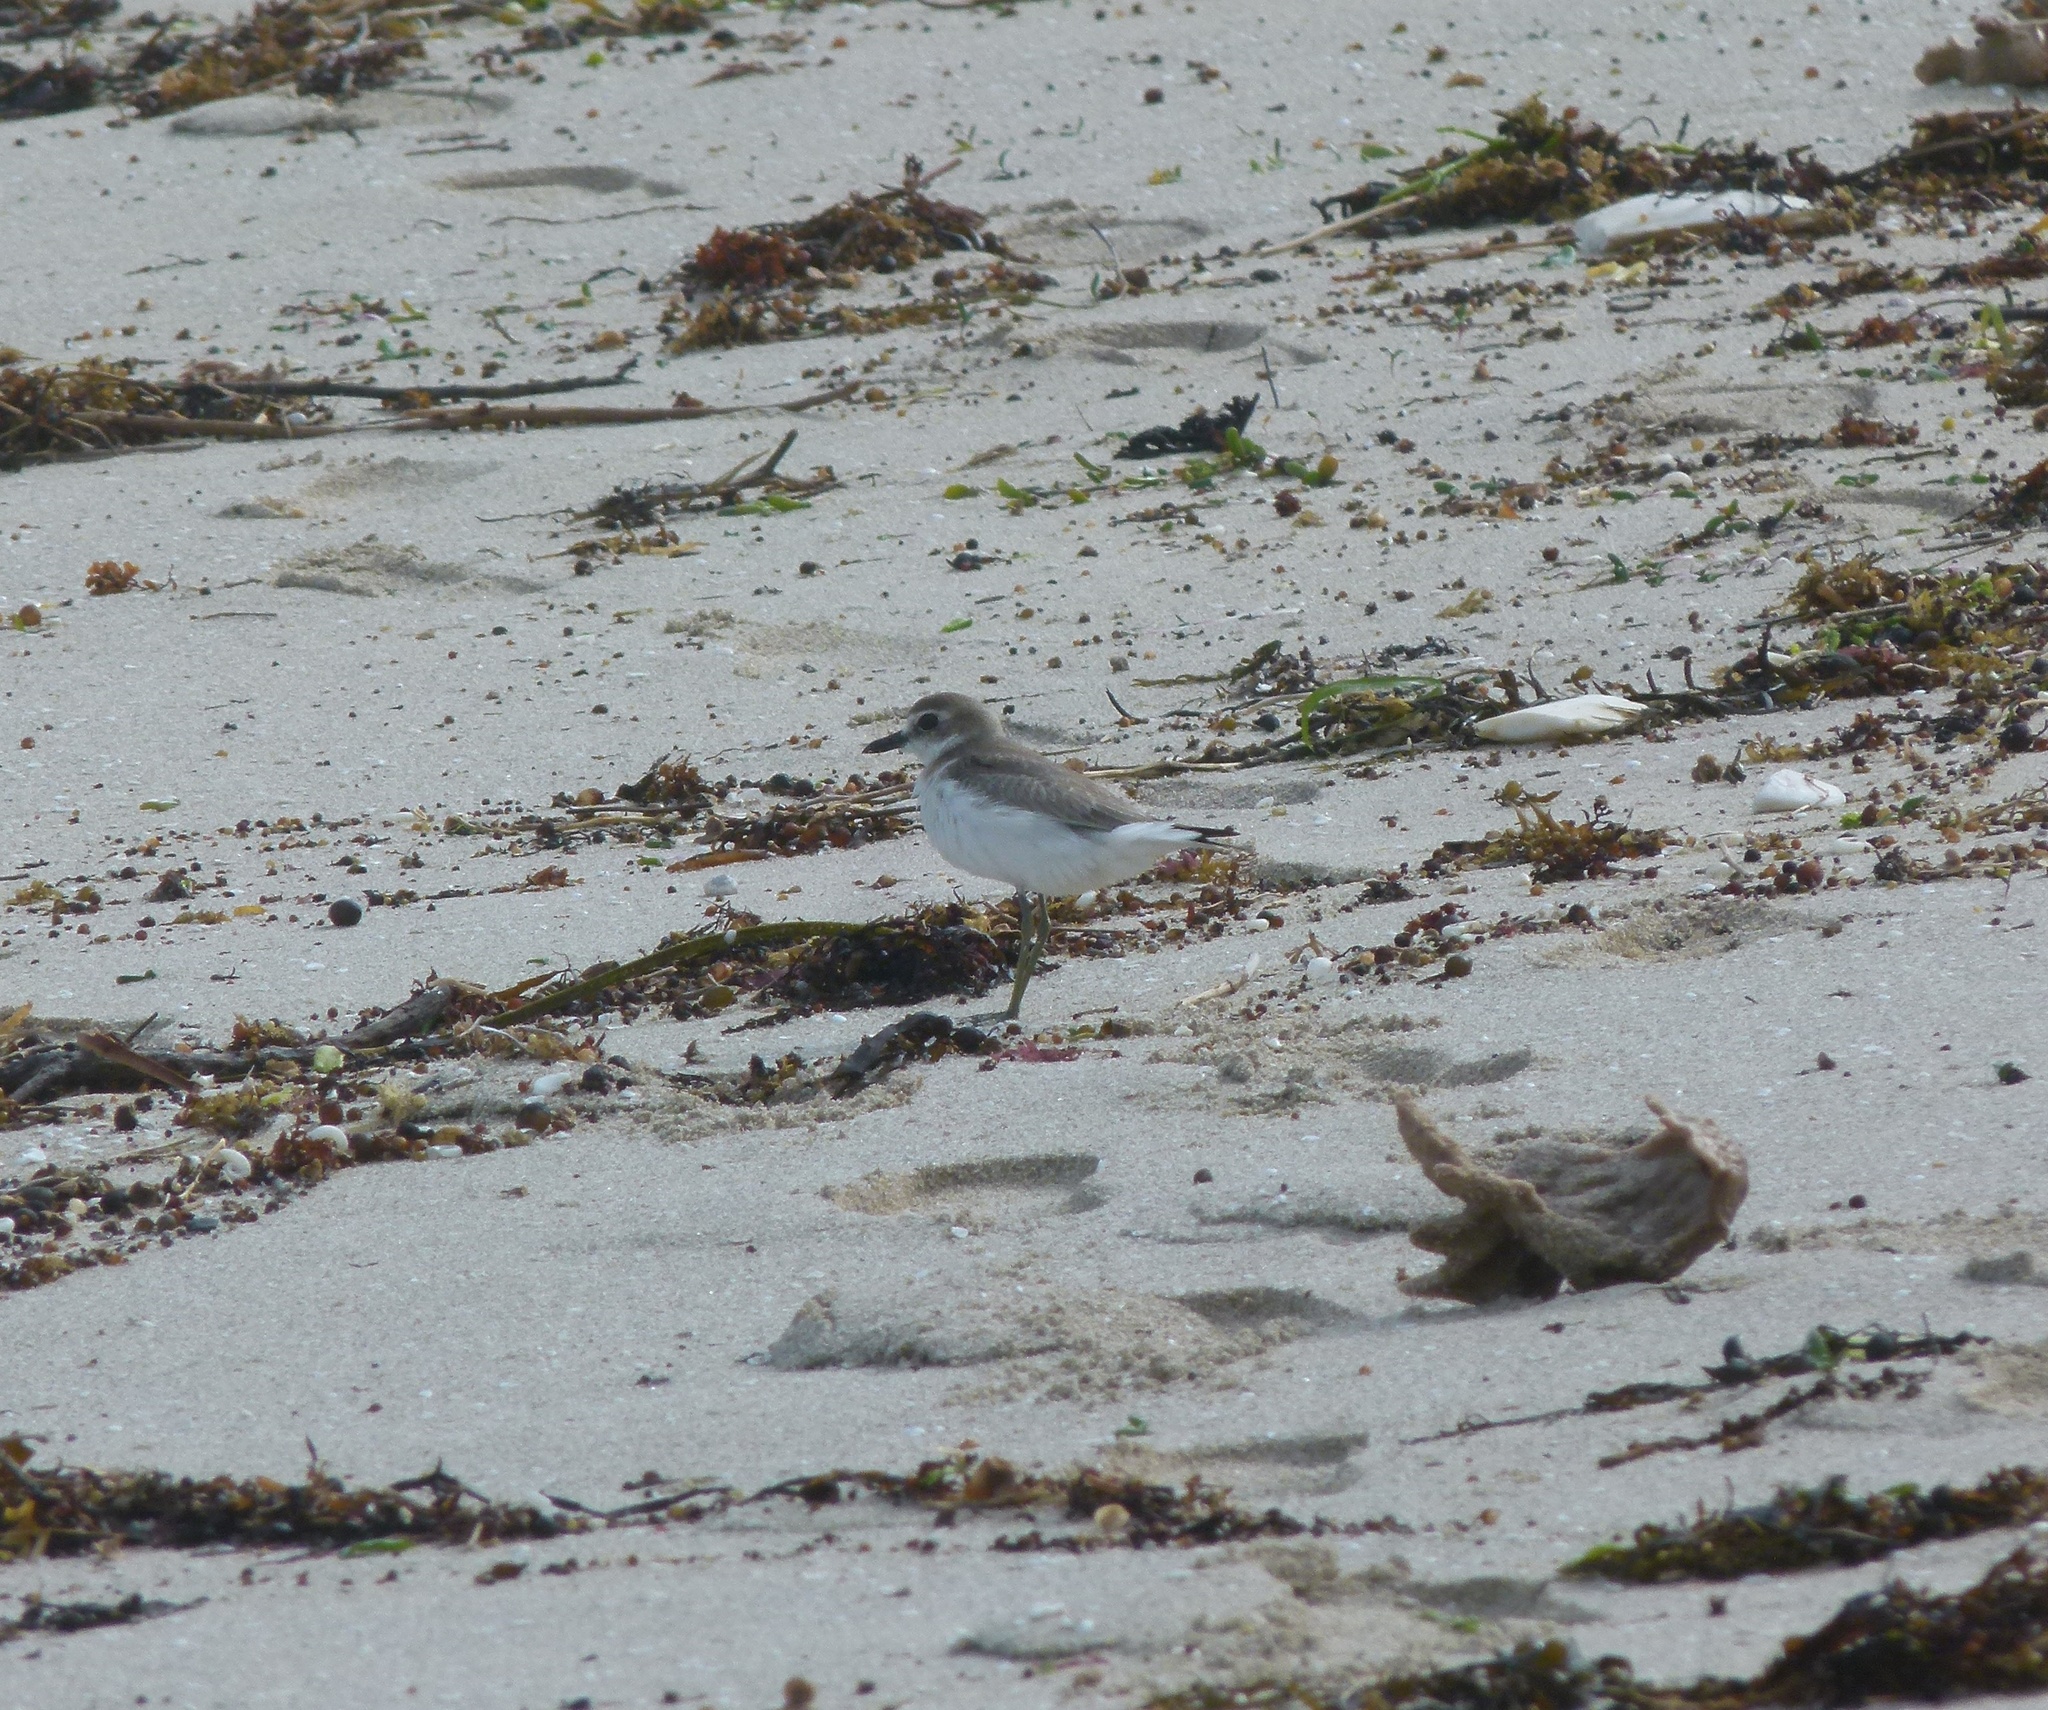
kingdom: Animalia
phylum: Chordata
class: Aves
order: Charadriiformes
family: Charadriidae
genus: Charadrius
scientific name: Charadrius leschenaultii
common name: Greater sand plover
